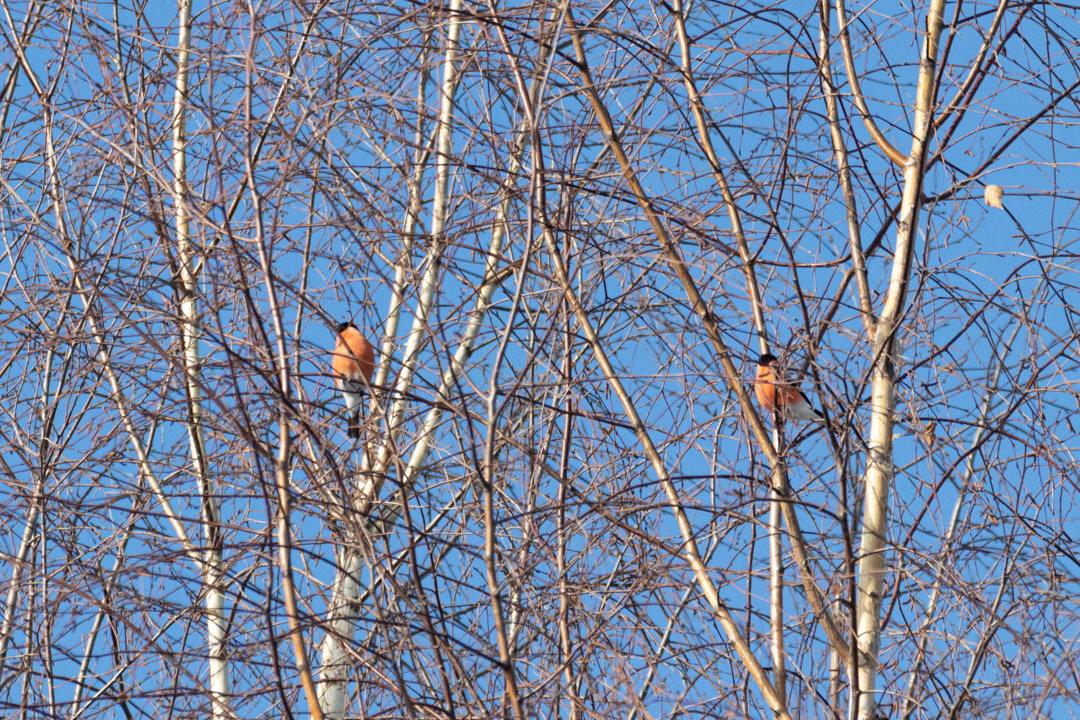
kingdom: Animalia
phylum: Chordata
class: Aves
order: Passeriformes
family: Fringillidae
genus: Pyrrhula
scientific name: Pyrrhula pyrrhula
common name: Eurasian bullfinch
